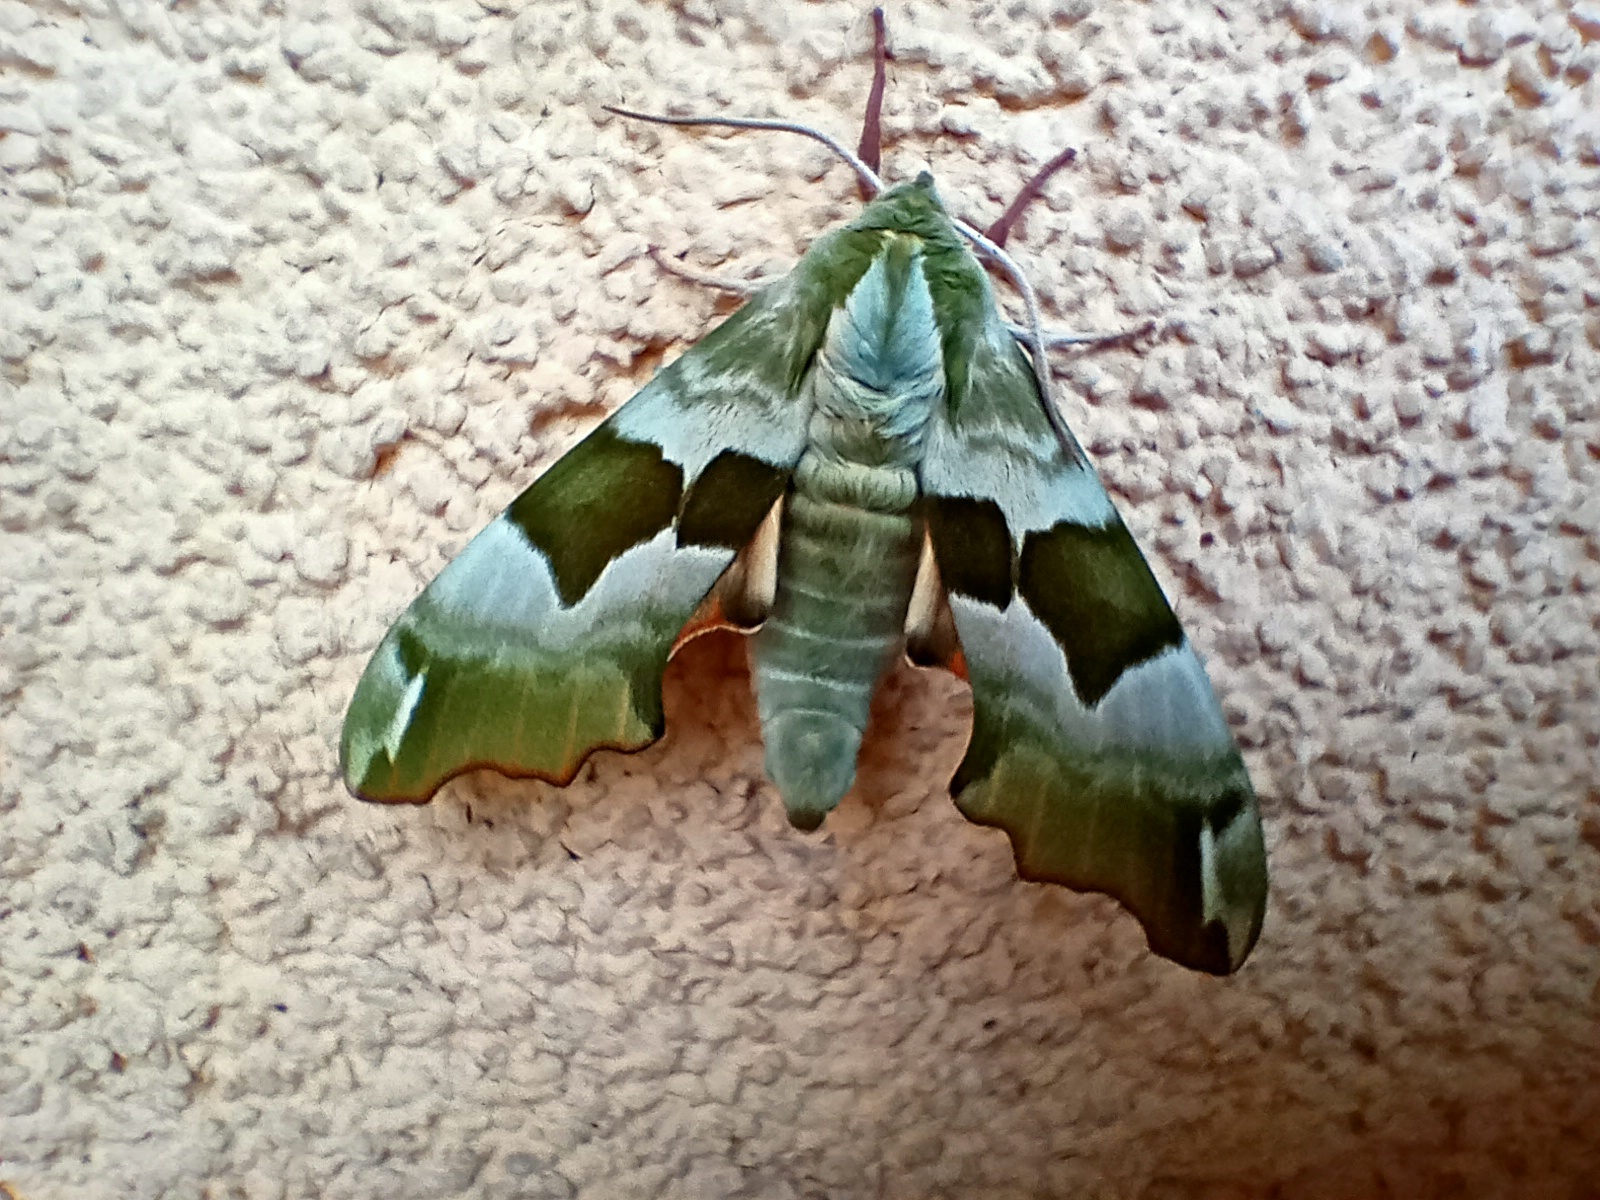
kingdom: Animalia
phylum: Arthropoda
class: Insecta
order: Lepidoptera
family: Sphingidae
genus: Mimas
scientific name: Mimas tiliae
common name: Lime hawk-moth
